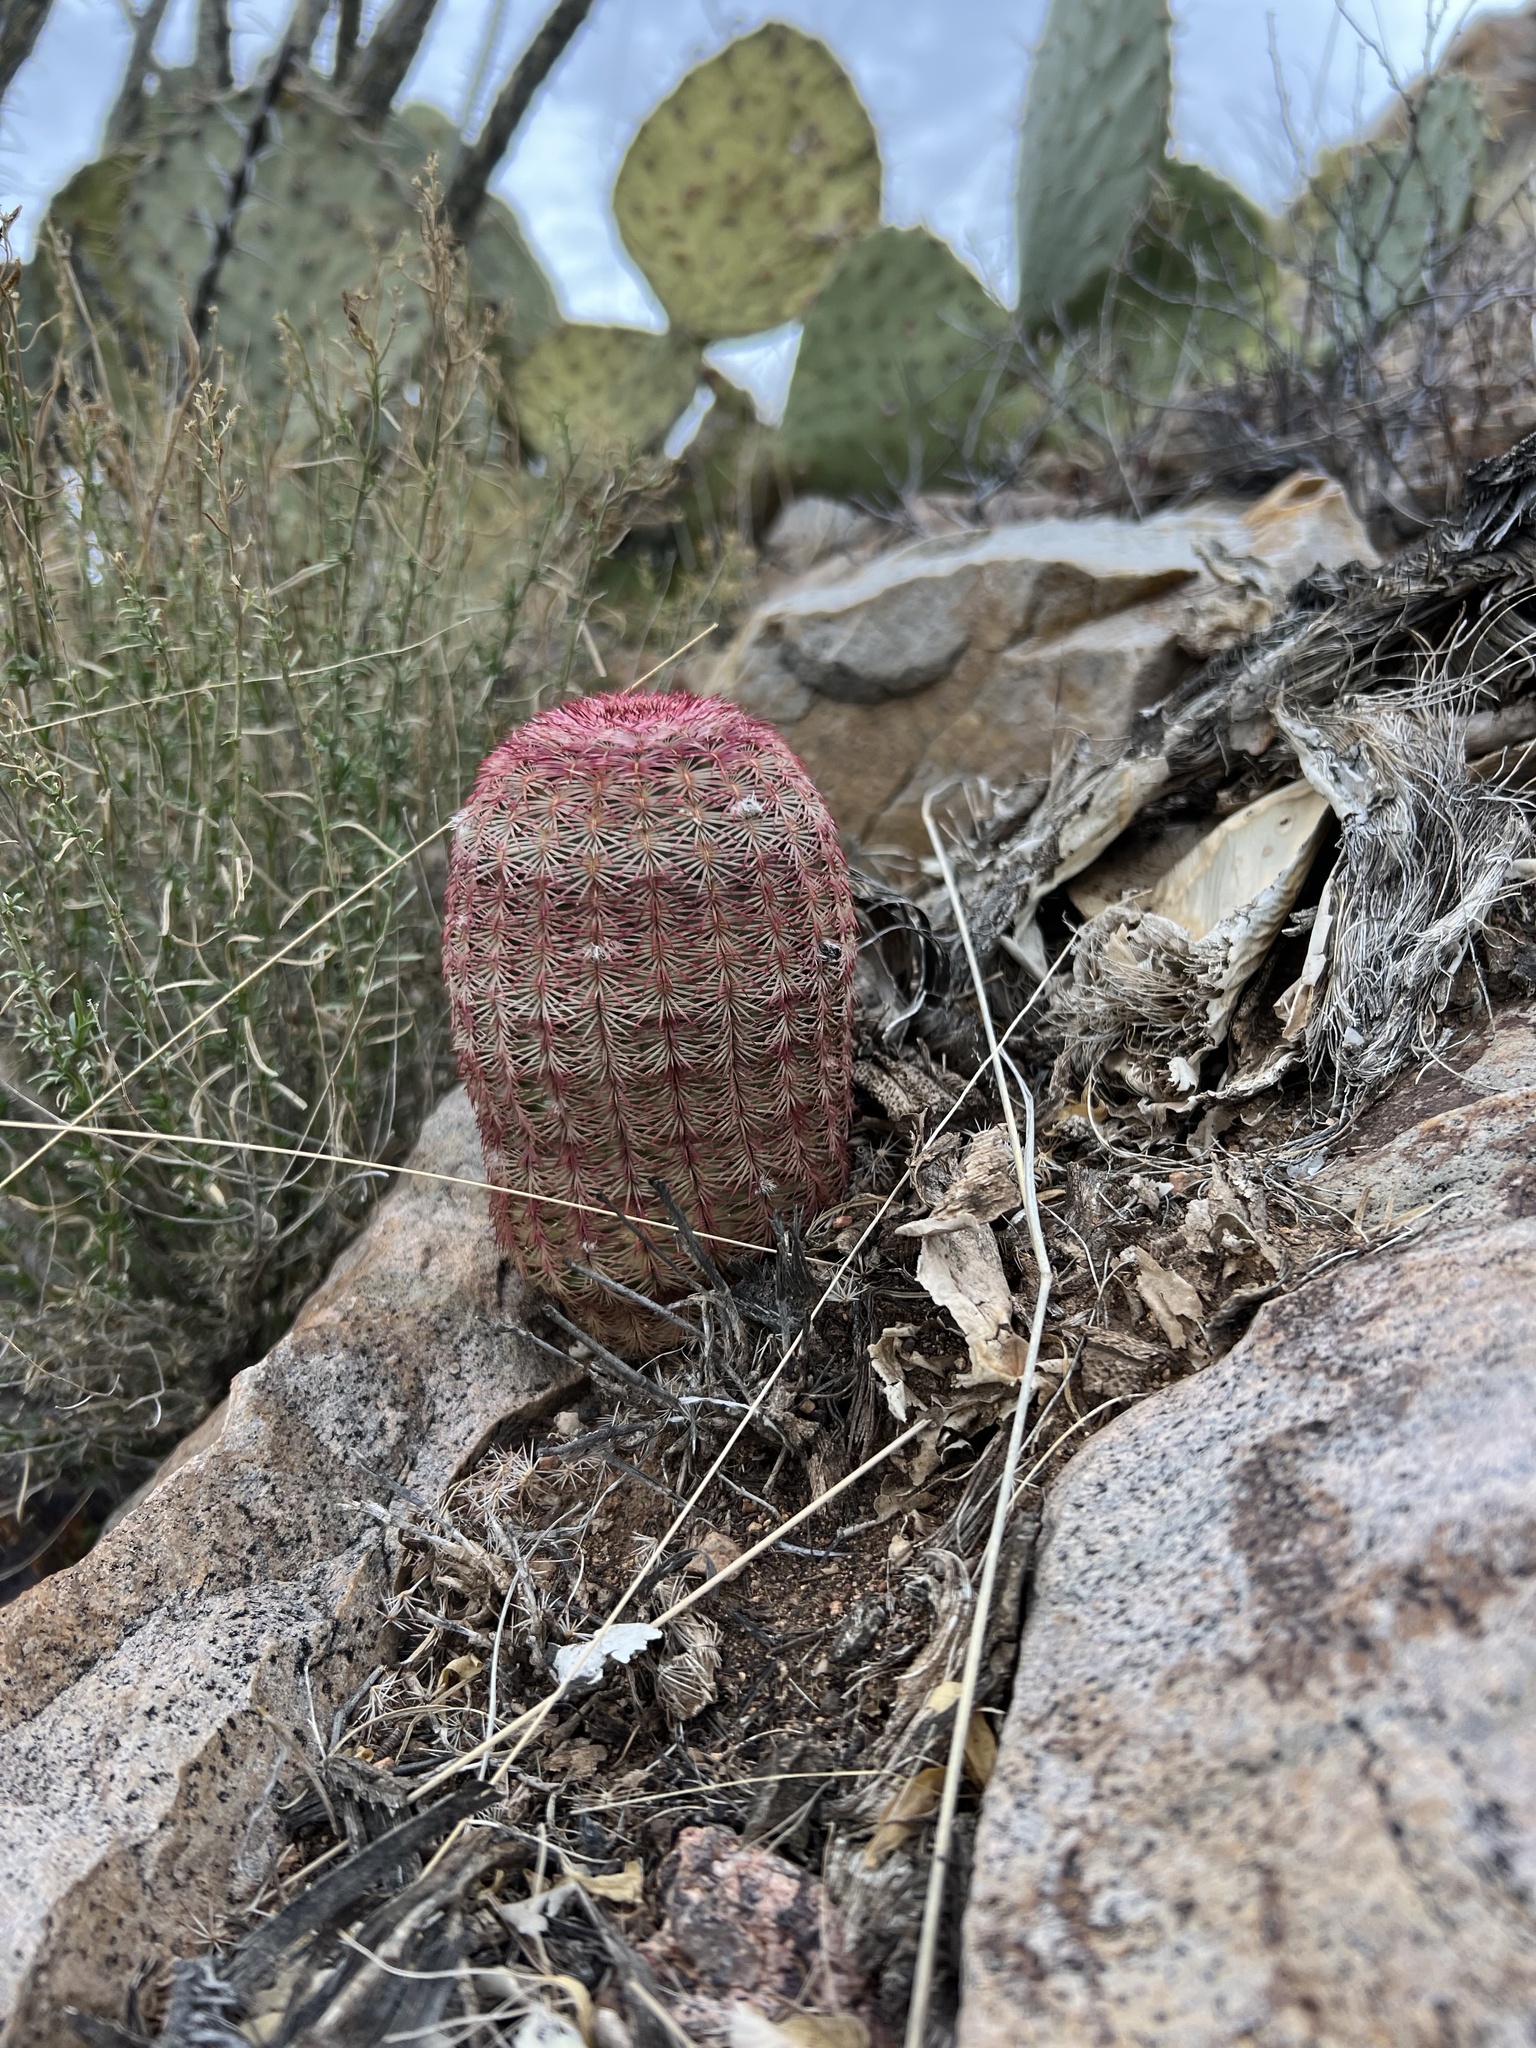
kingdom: Plantae
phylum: Tracheophyta
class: Magnoliopsida
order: Caryophyllales
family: Cactaceae
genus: Echinocereus
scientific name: Echinocereus rigidissimus
